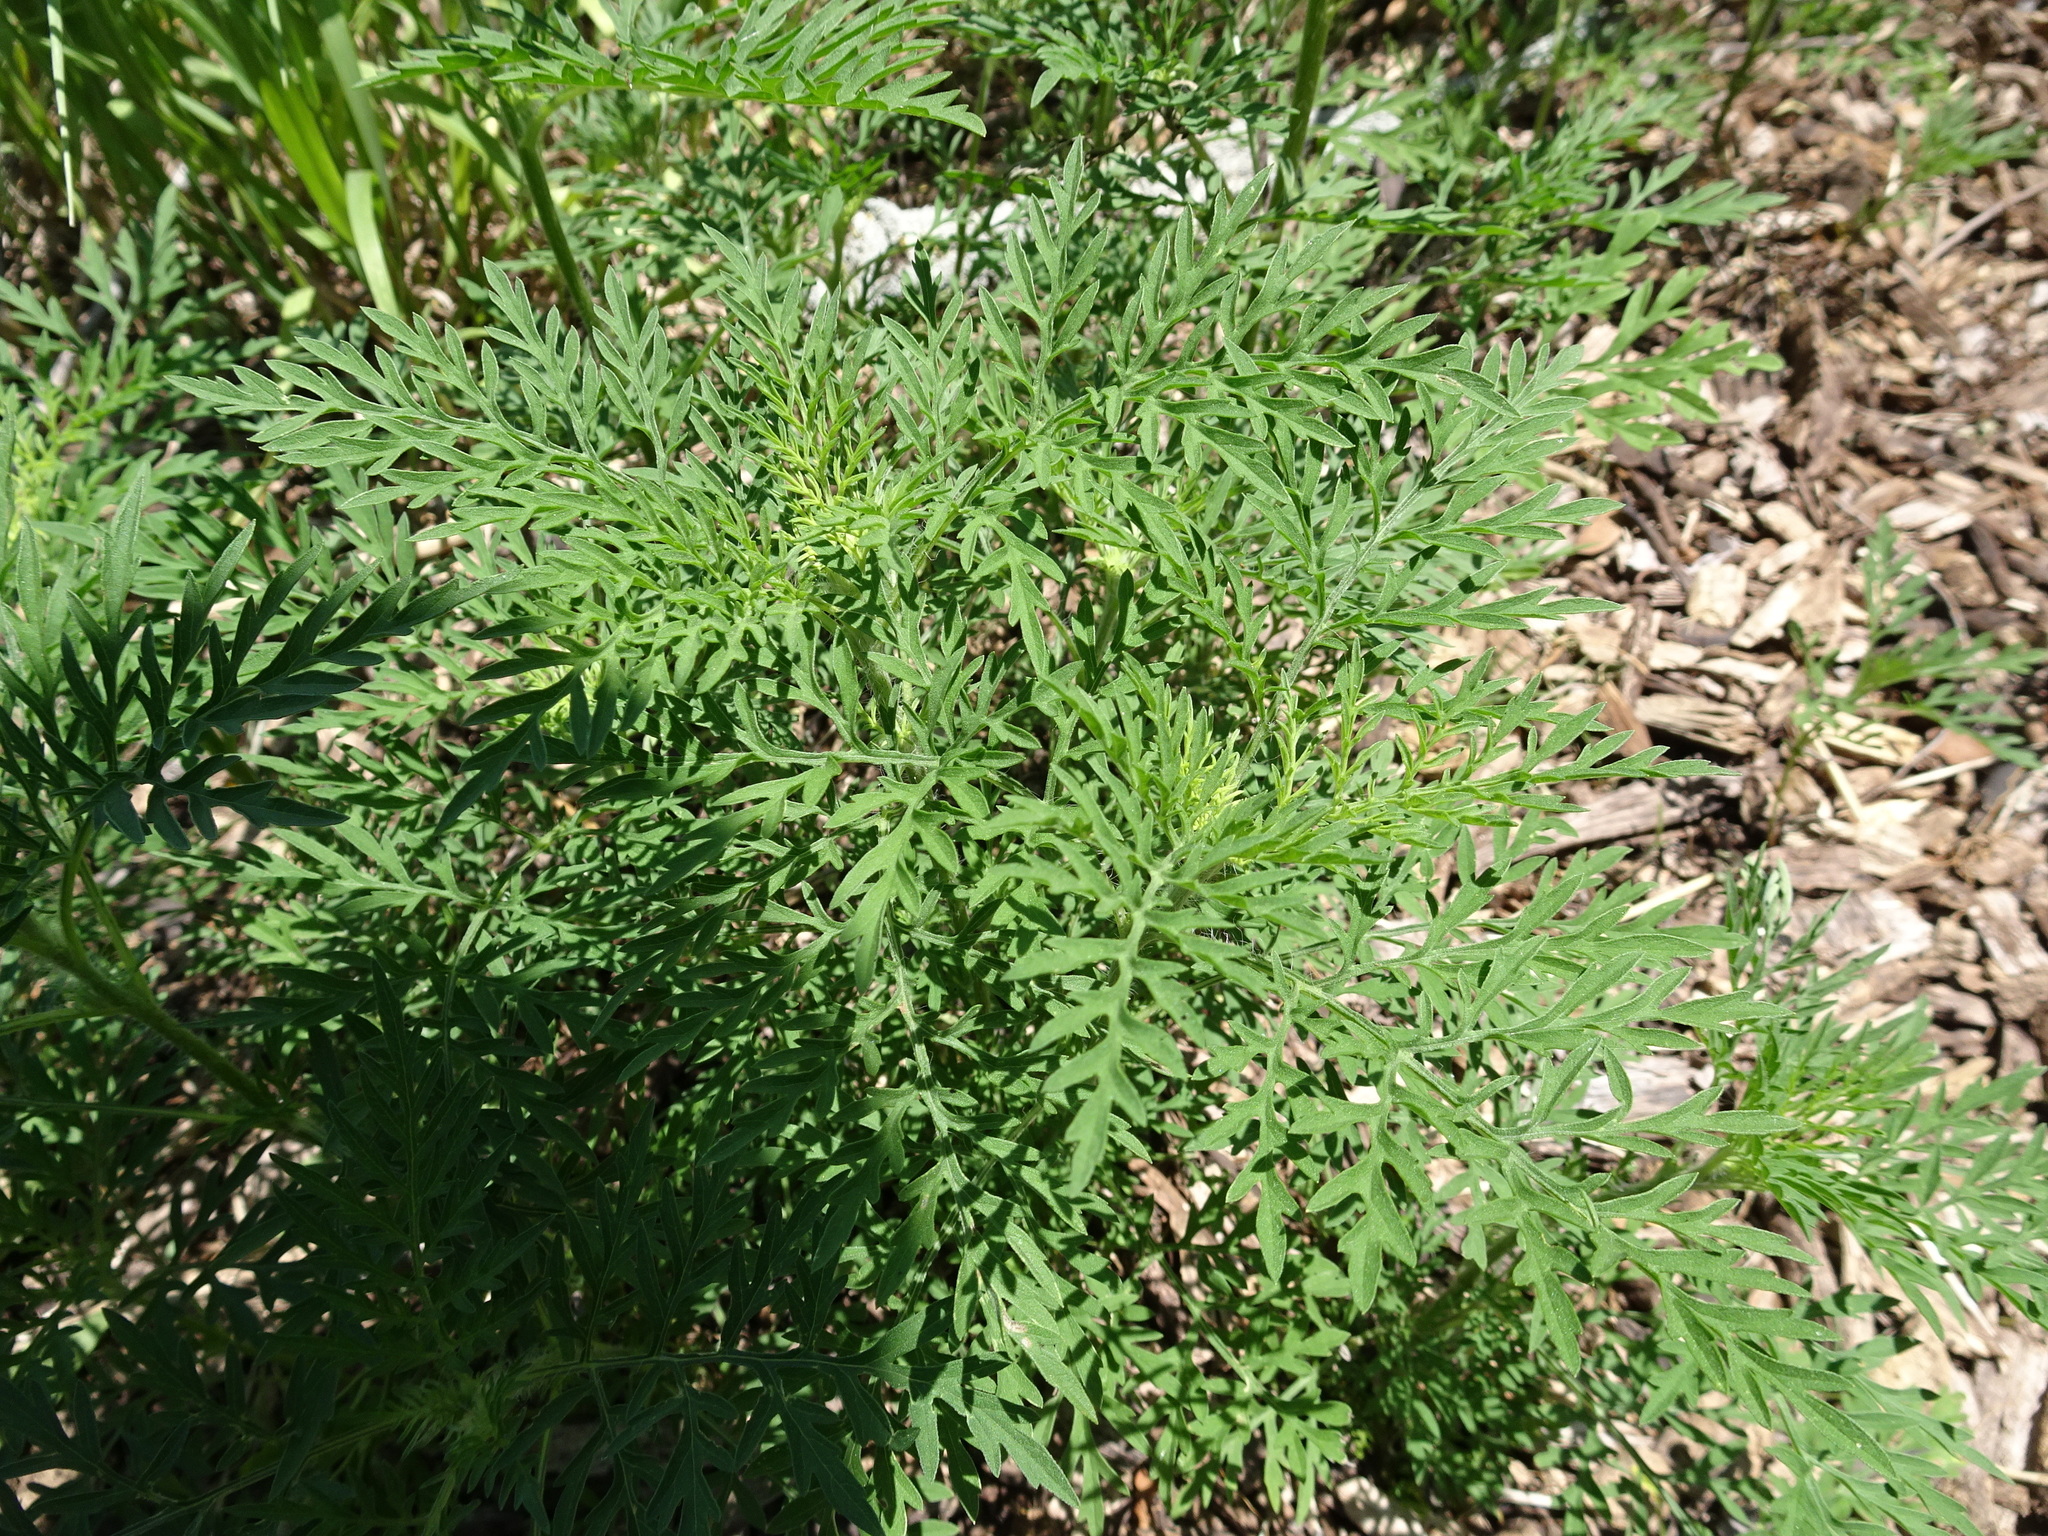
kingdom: Plantae
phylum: Tracheophyta
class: Magnoliopsida
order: Asterales
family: Asteraceae
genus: Ambrosia
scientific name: Ambrosia artemisiifolia
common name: Annual ragweed
